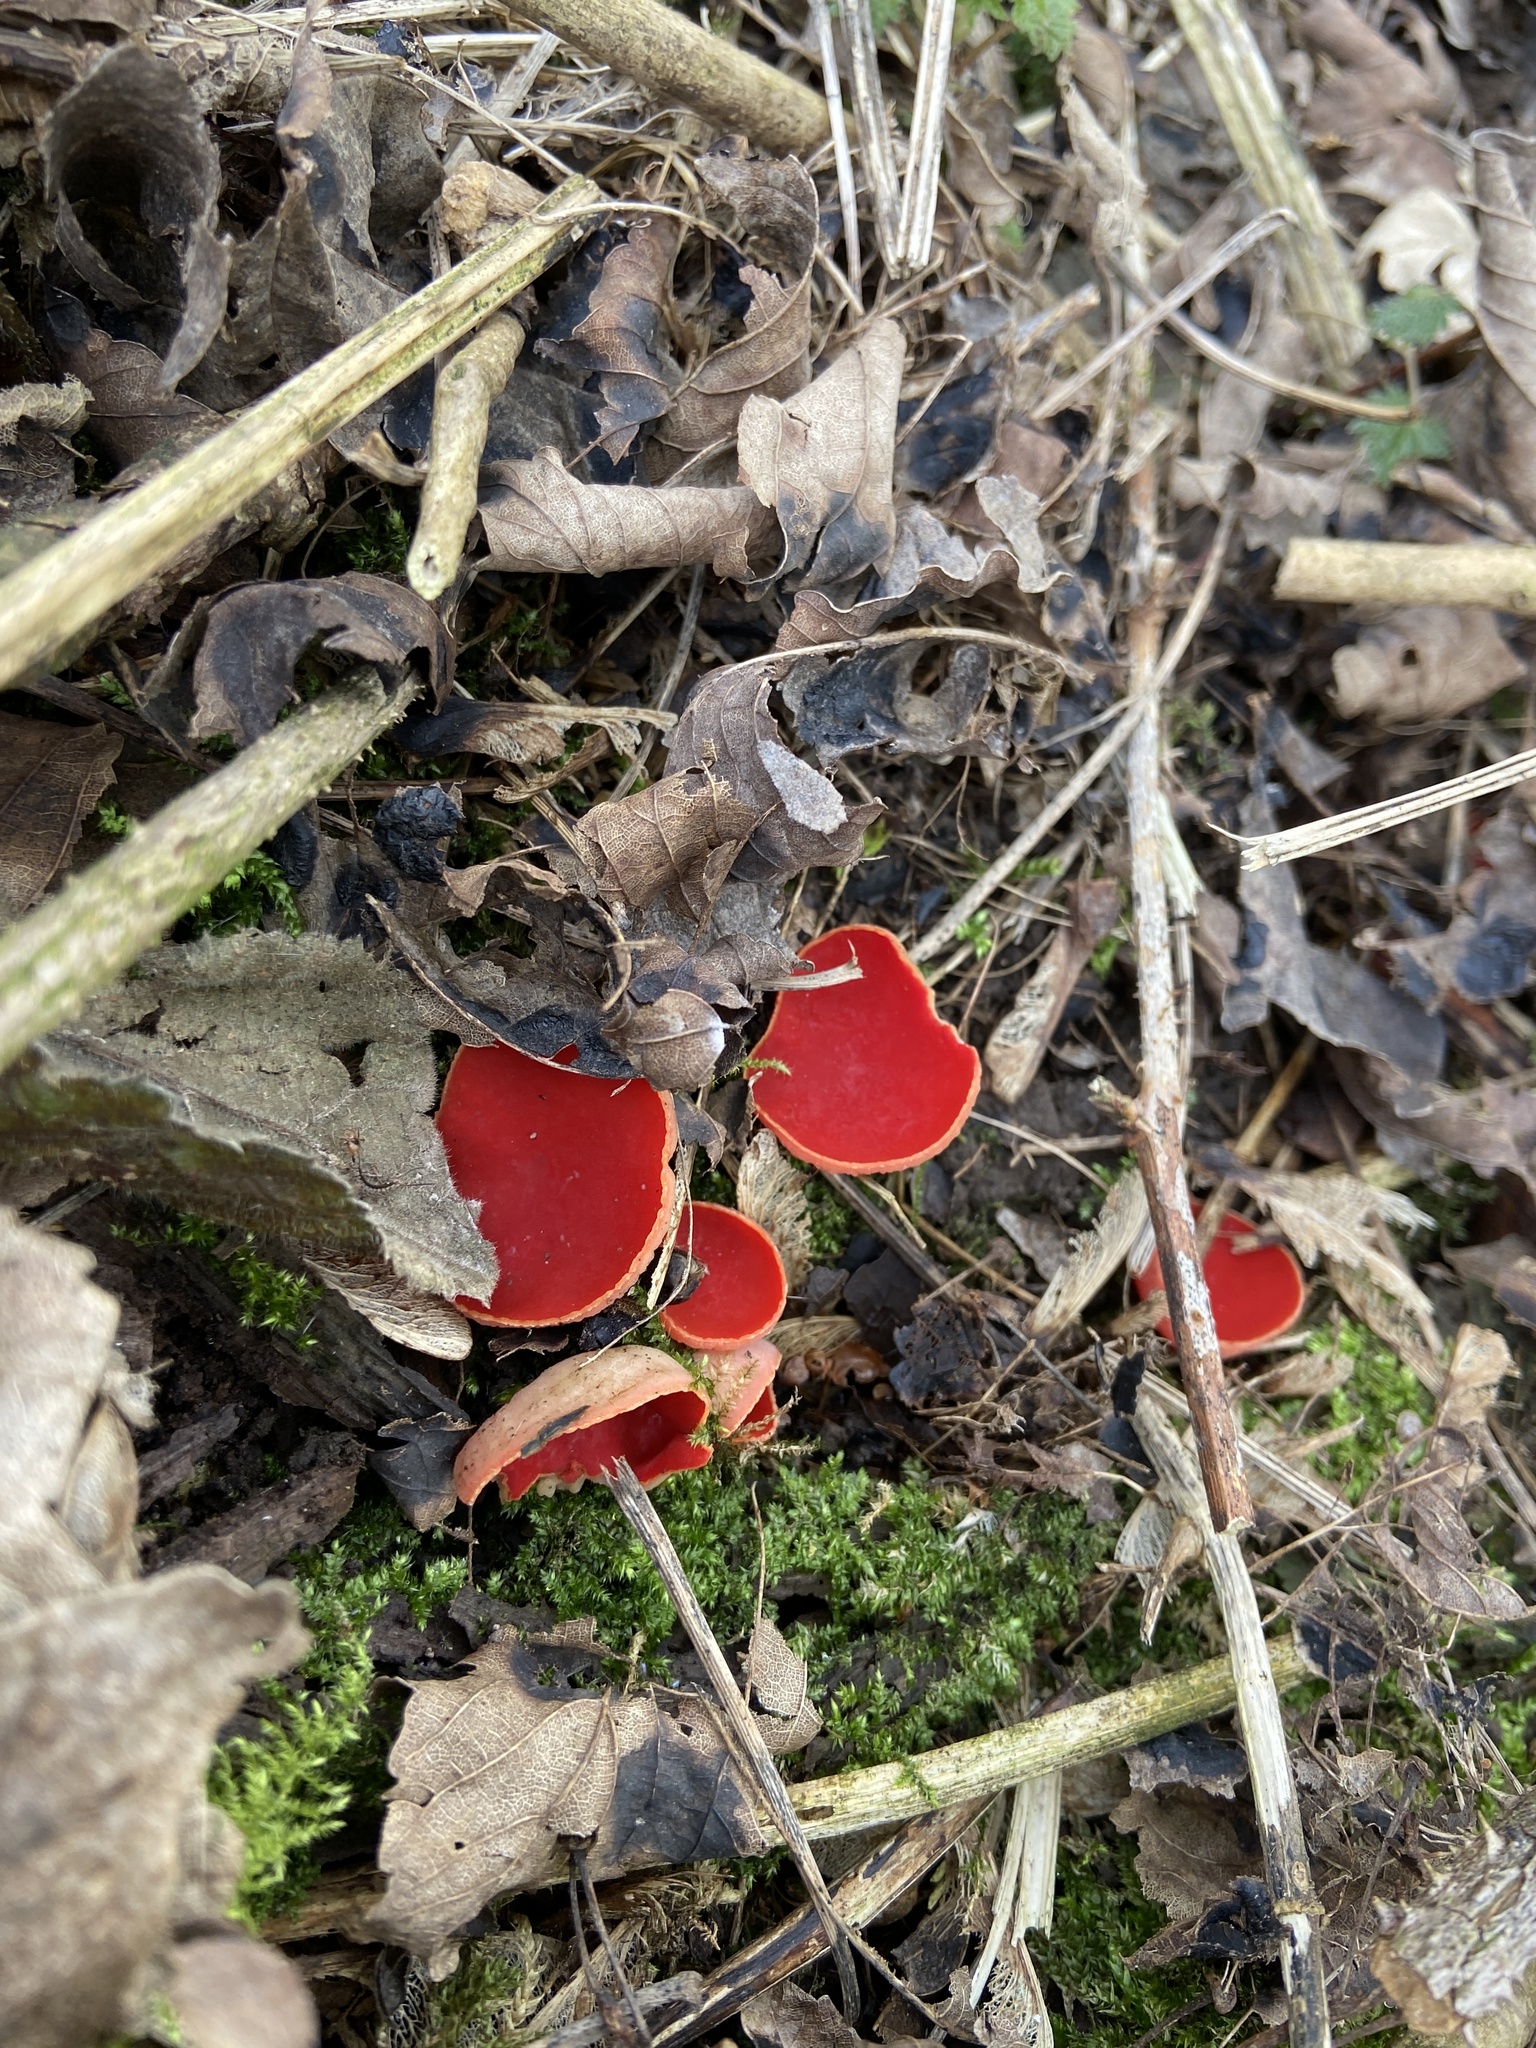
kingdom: Fungi
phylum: Ascomycota
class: Pezizomycetes
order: Pezizales
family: Sarcoscyphaceae
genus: Sarcoscypha
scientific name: Sarcoscypha
